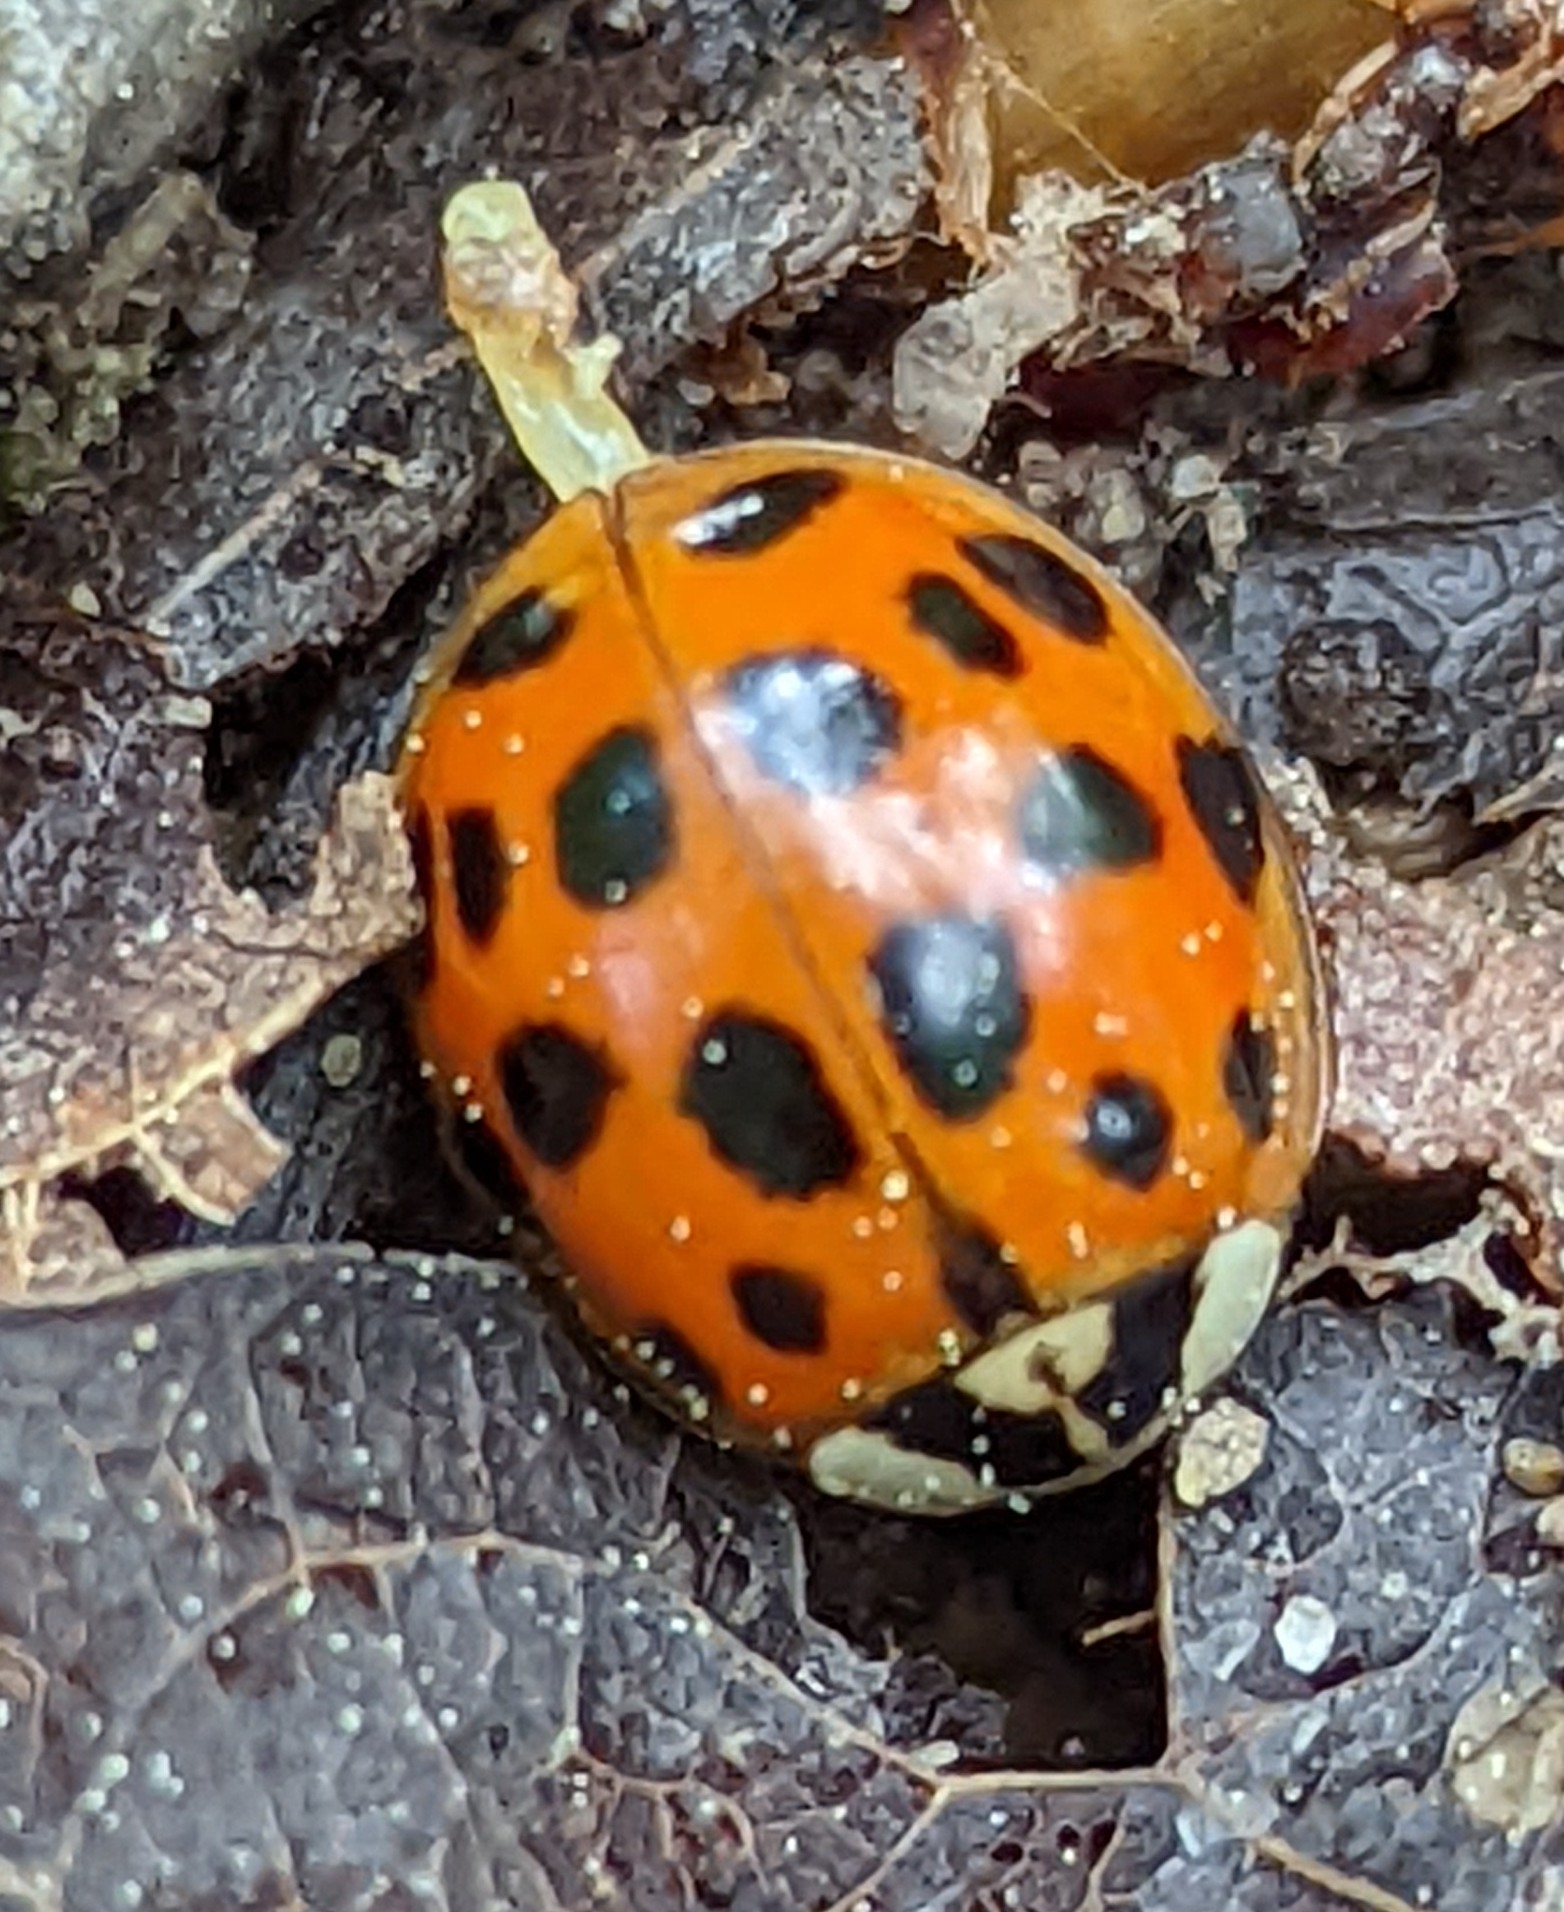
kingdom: Animalia
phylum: Arthropoda
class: Insecta
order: Coleoptera
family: Coccinellidae
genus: Harmonia
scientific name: Harmonia axyridis
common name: Harlequin ladybird
